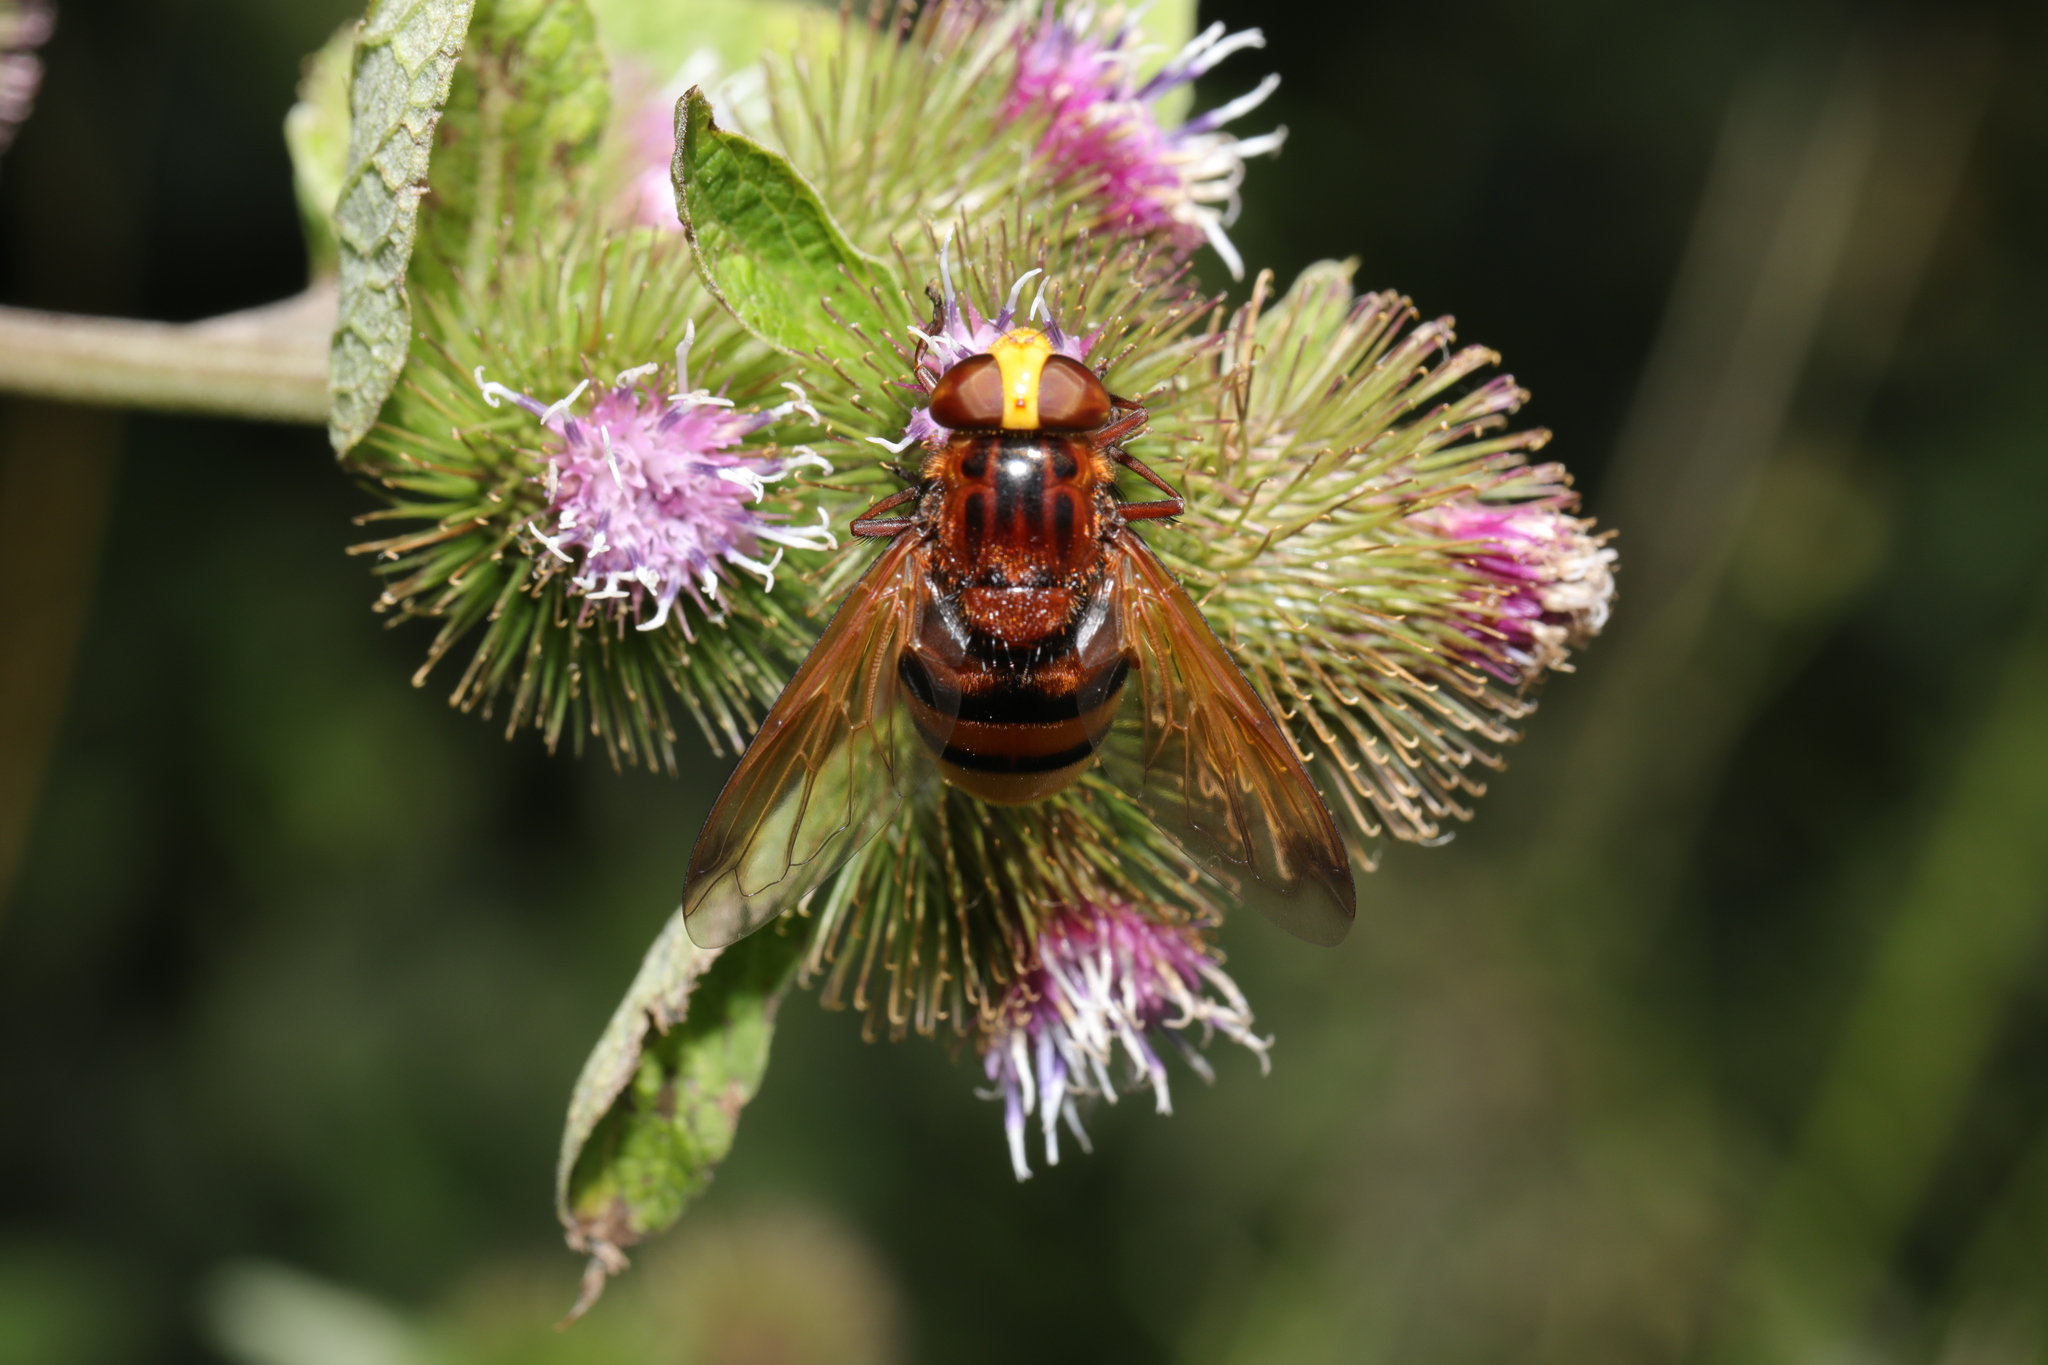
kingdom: Animalia
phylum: Arthropoda
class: Insecta
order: Diptera
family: Syrphidae
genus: Volucella
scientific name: Volucella zonaria
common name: Hornet hoverfly
